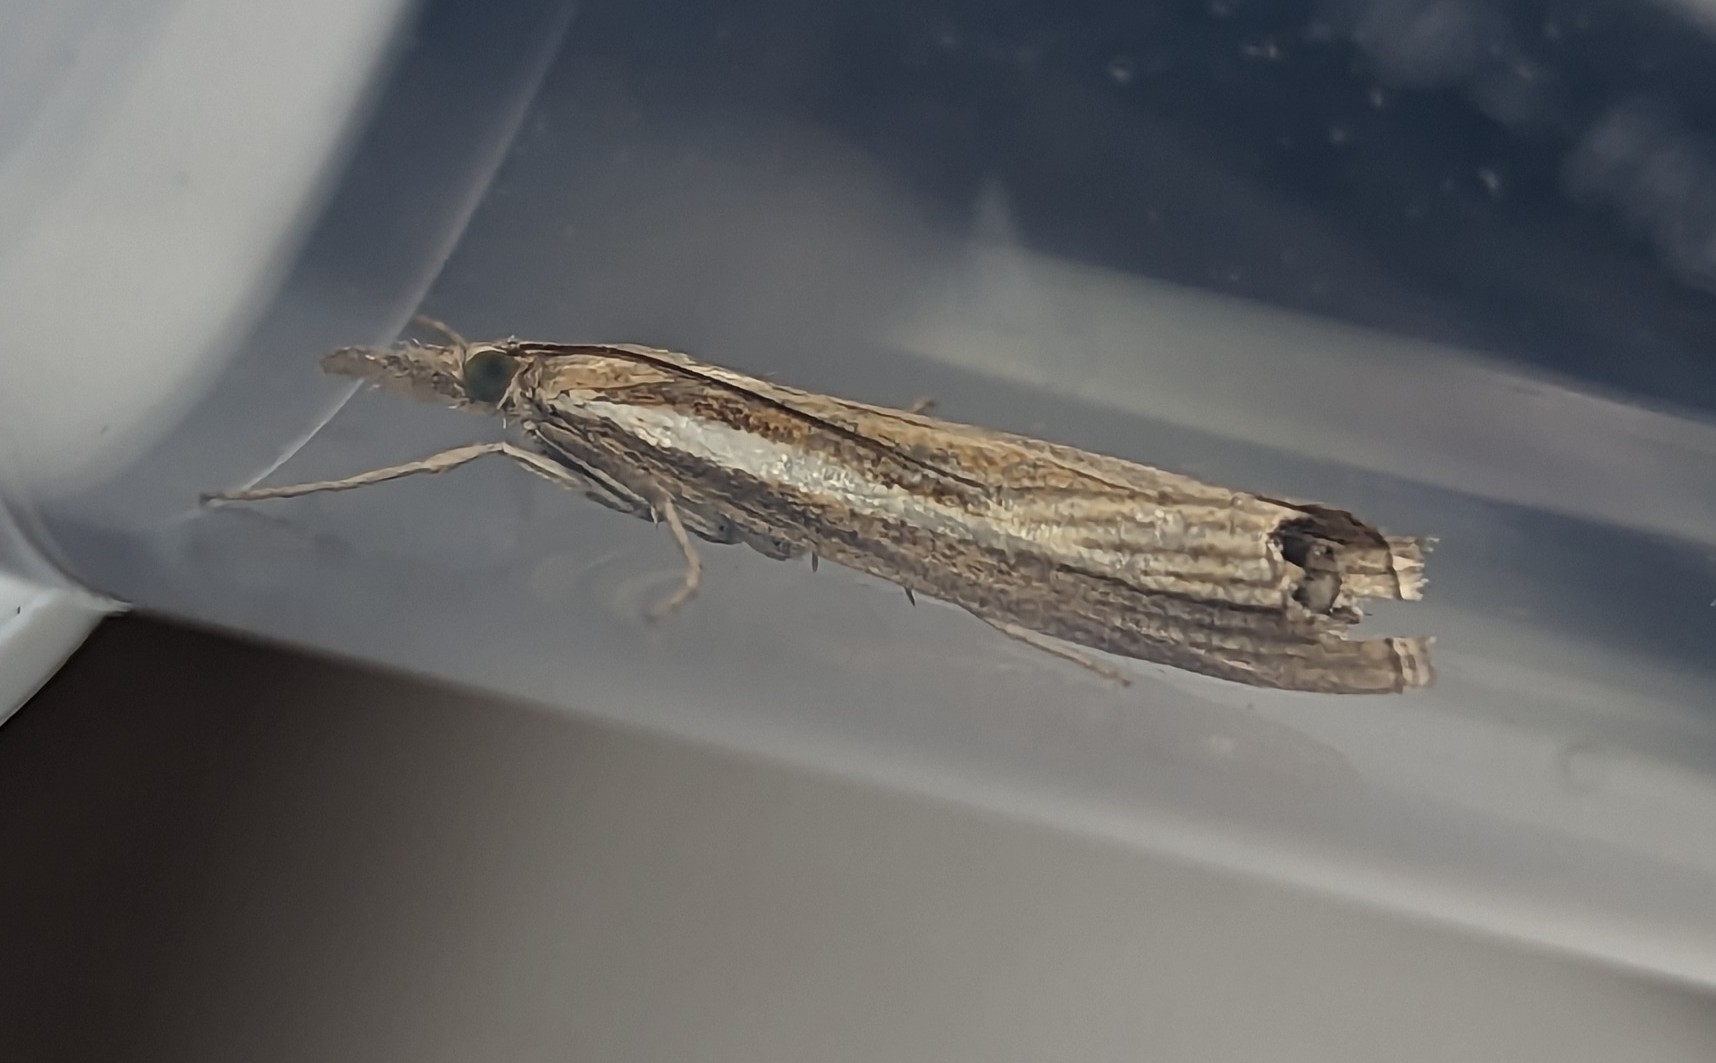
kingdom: Animalia
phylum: Arthropoda
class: Insecta
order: Lepidoptera
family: Crambidae
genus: Agriphila
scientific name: Agriphila tristellus
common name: Common grass-veneer
